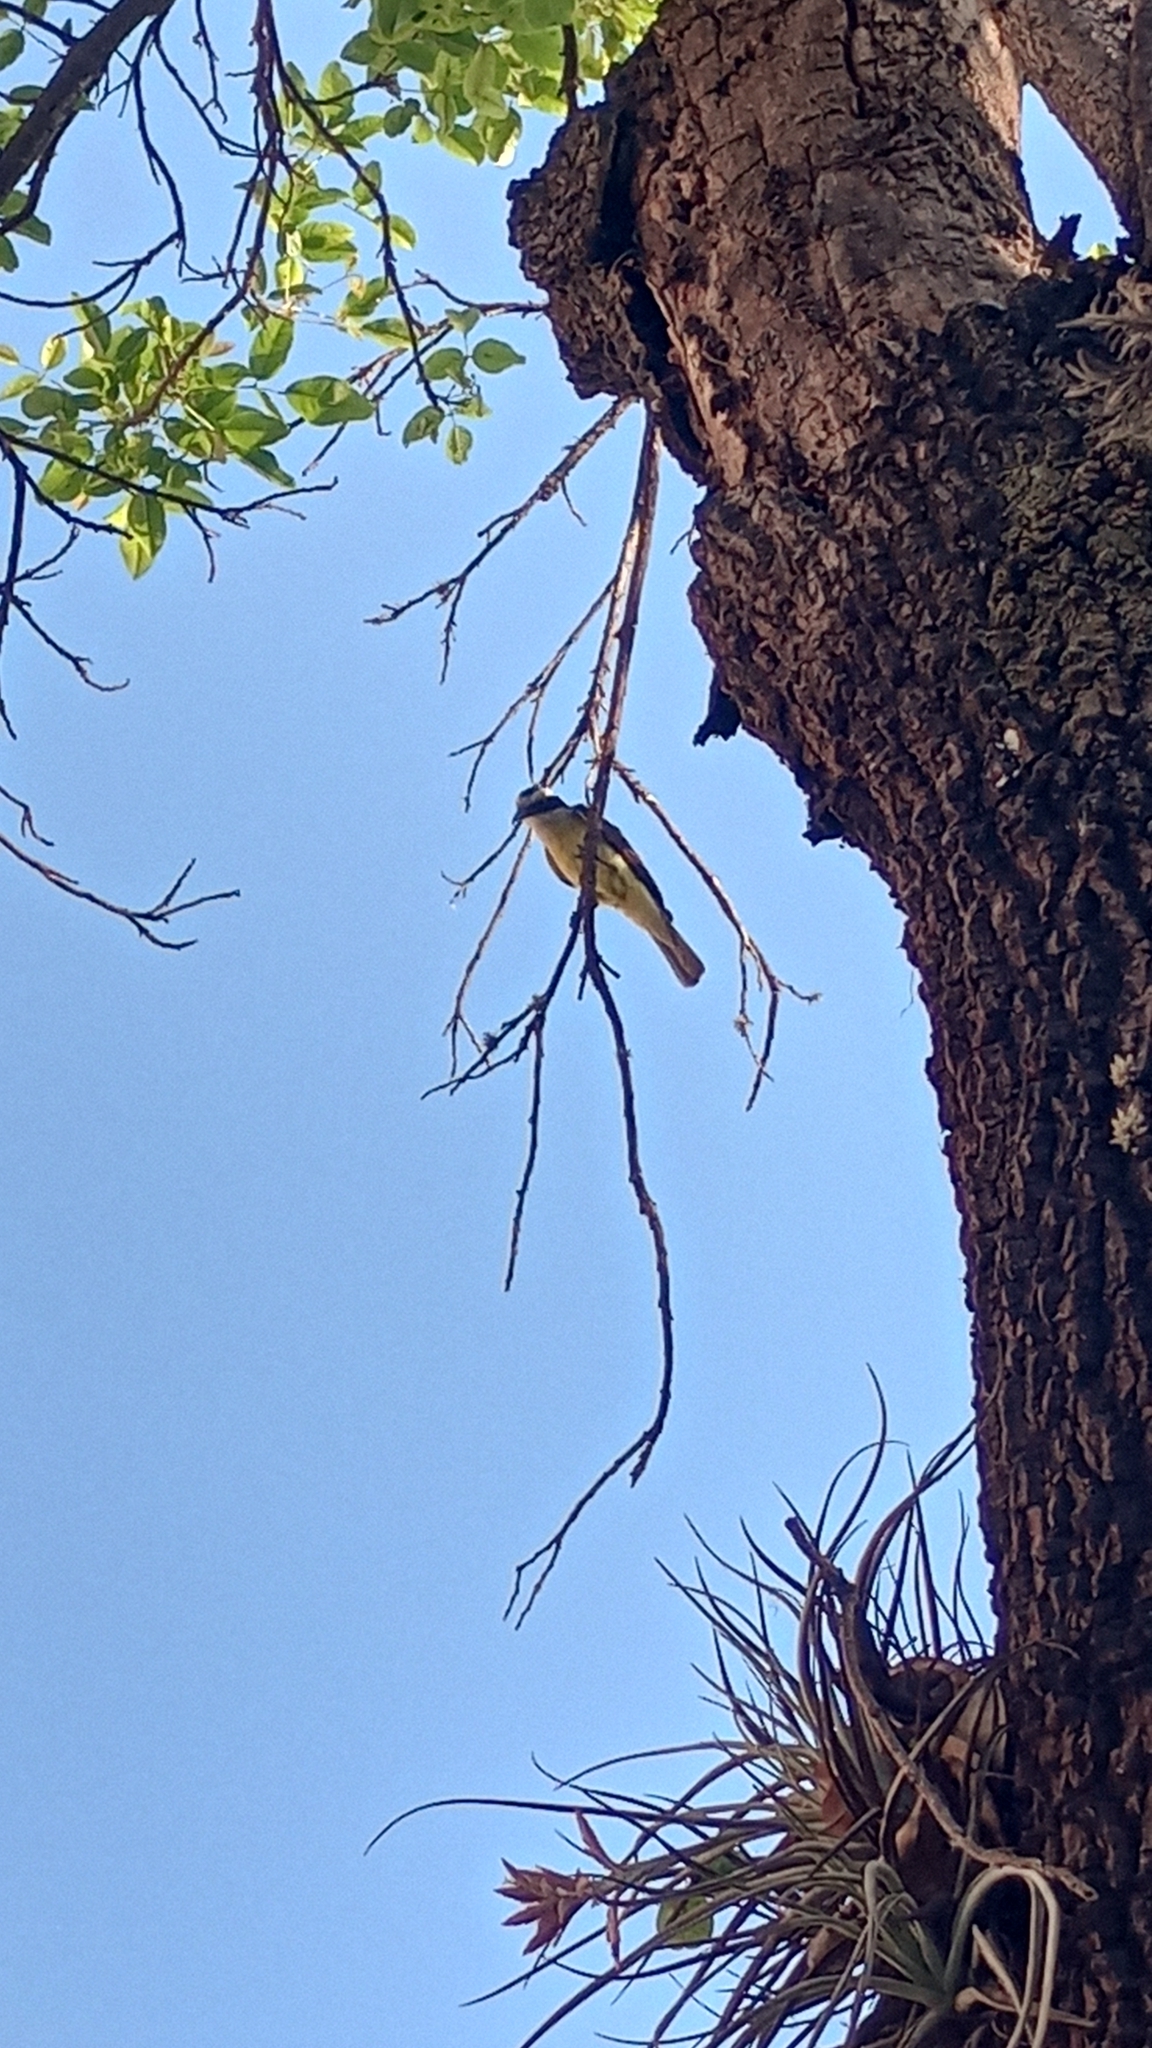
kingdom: Animalia
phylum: Chordata
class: Aves
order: Passeriformes
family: Tyrannidae
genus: Pitangus
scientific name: Pitangus sulphuratus
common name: Great kiskadee
